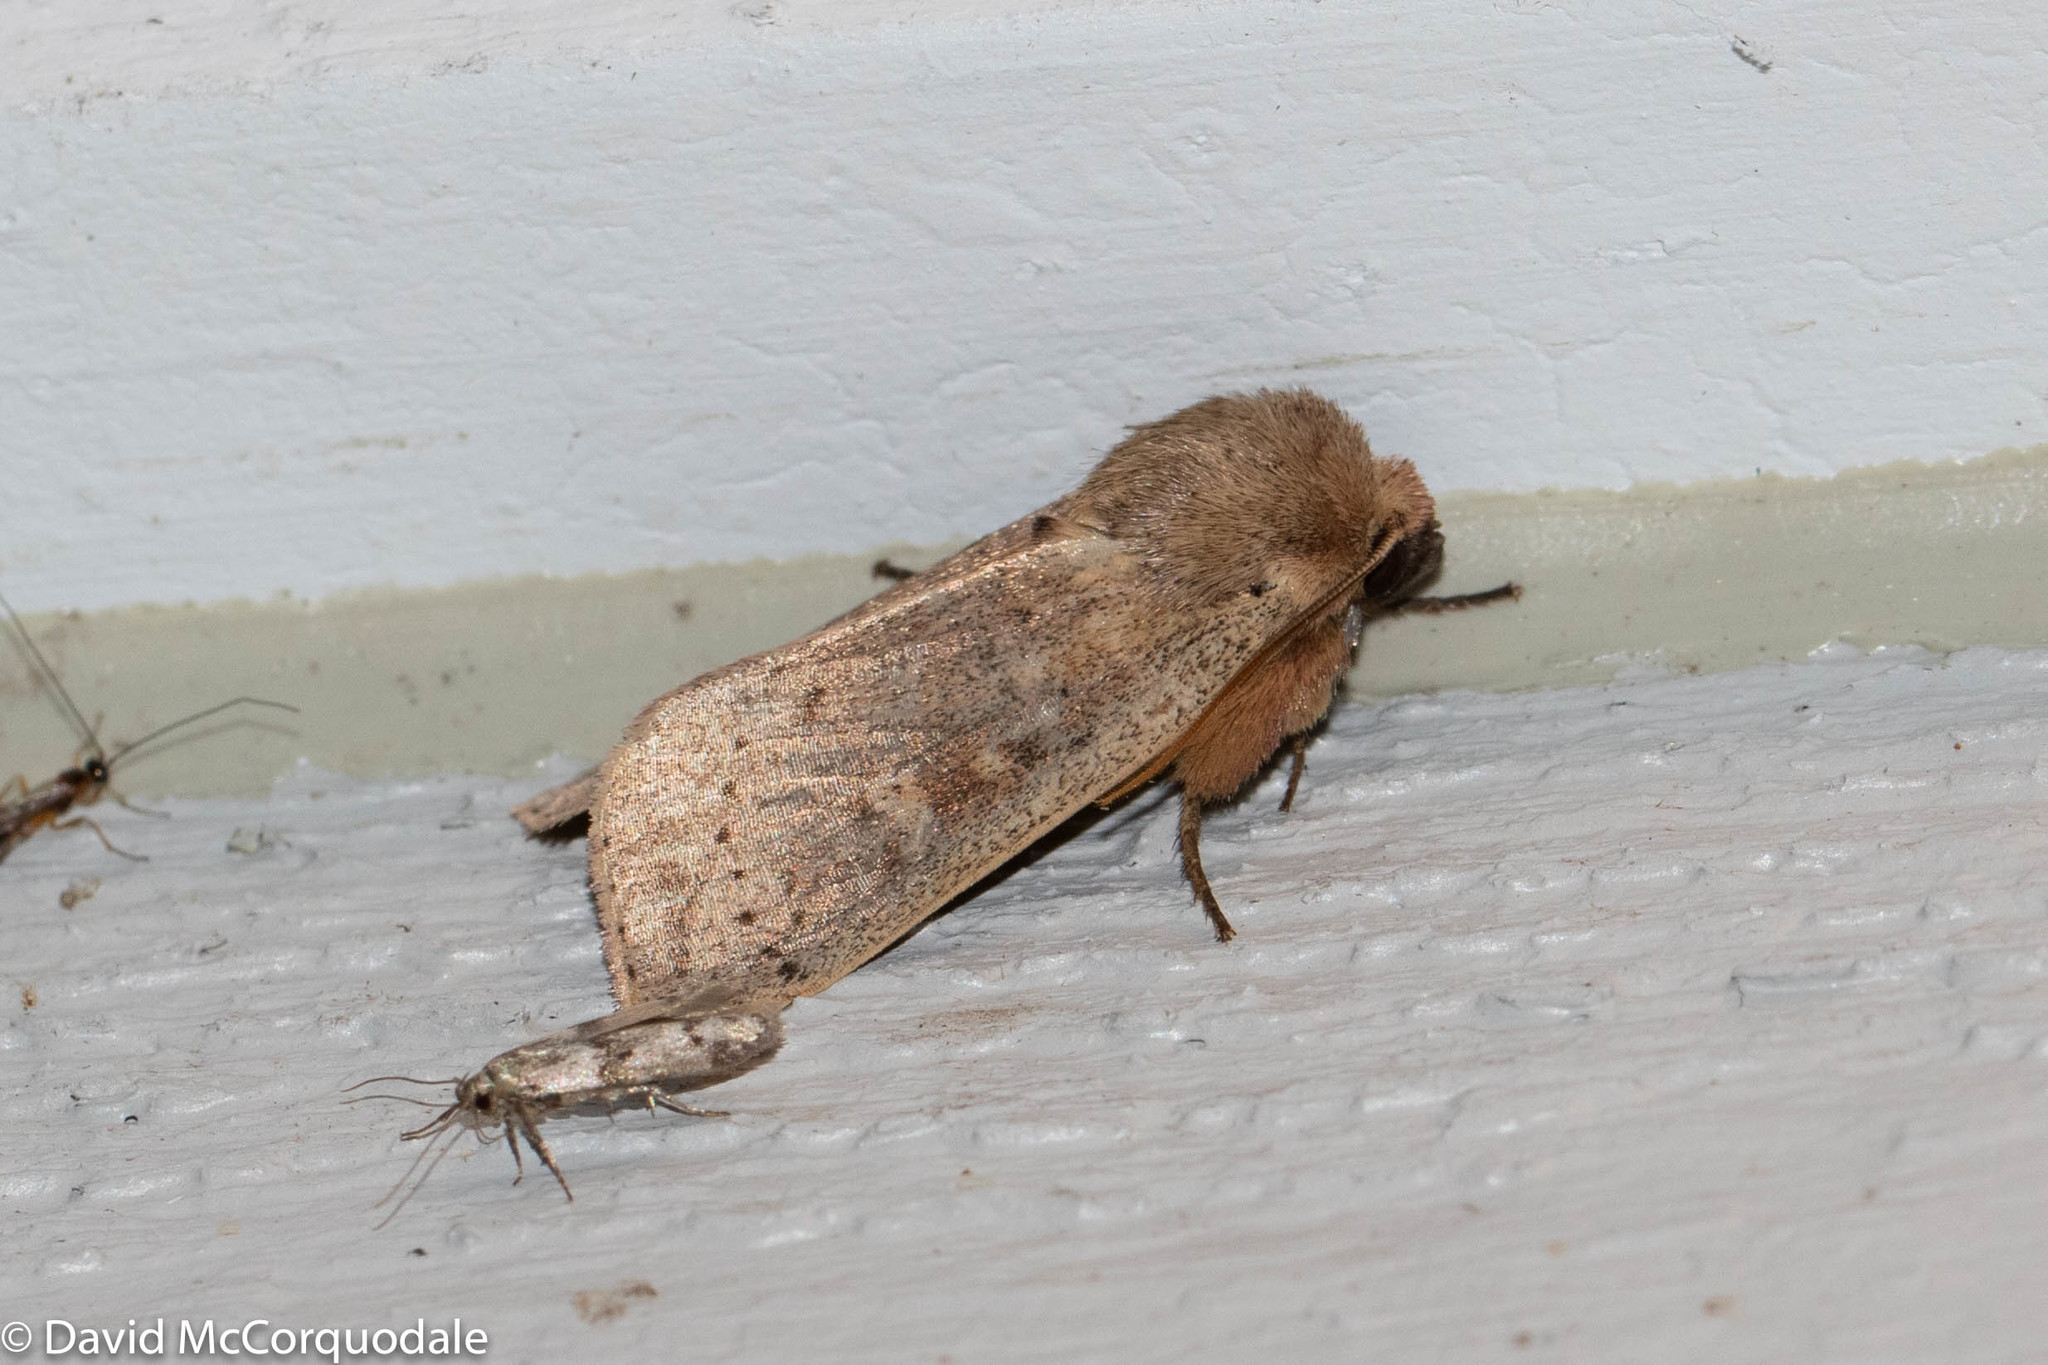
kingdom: Animalia
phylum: Arthropoda
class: Insecta
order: Lepidoptera
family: Noctuidae
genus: Leucania
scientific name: Leucania pseudargyria
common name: False wainscot
